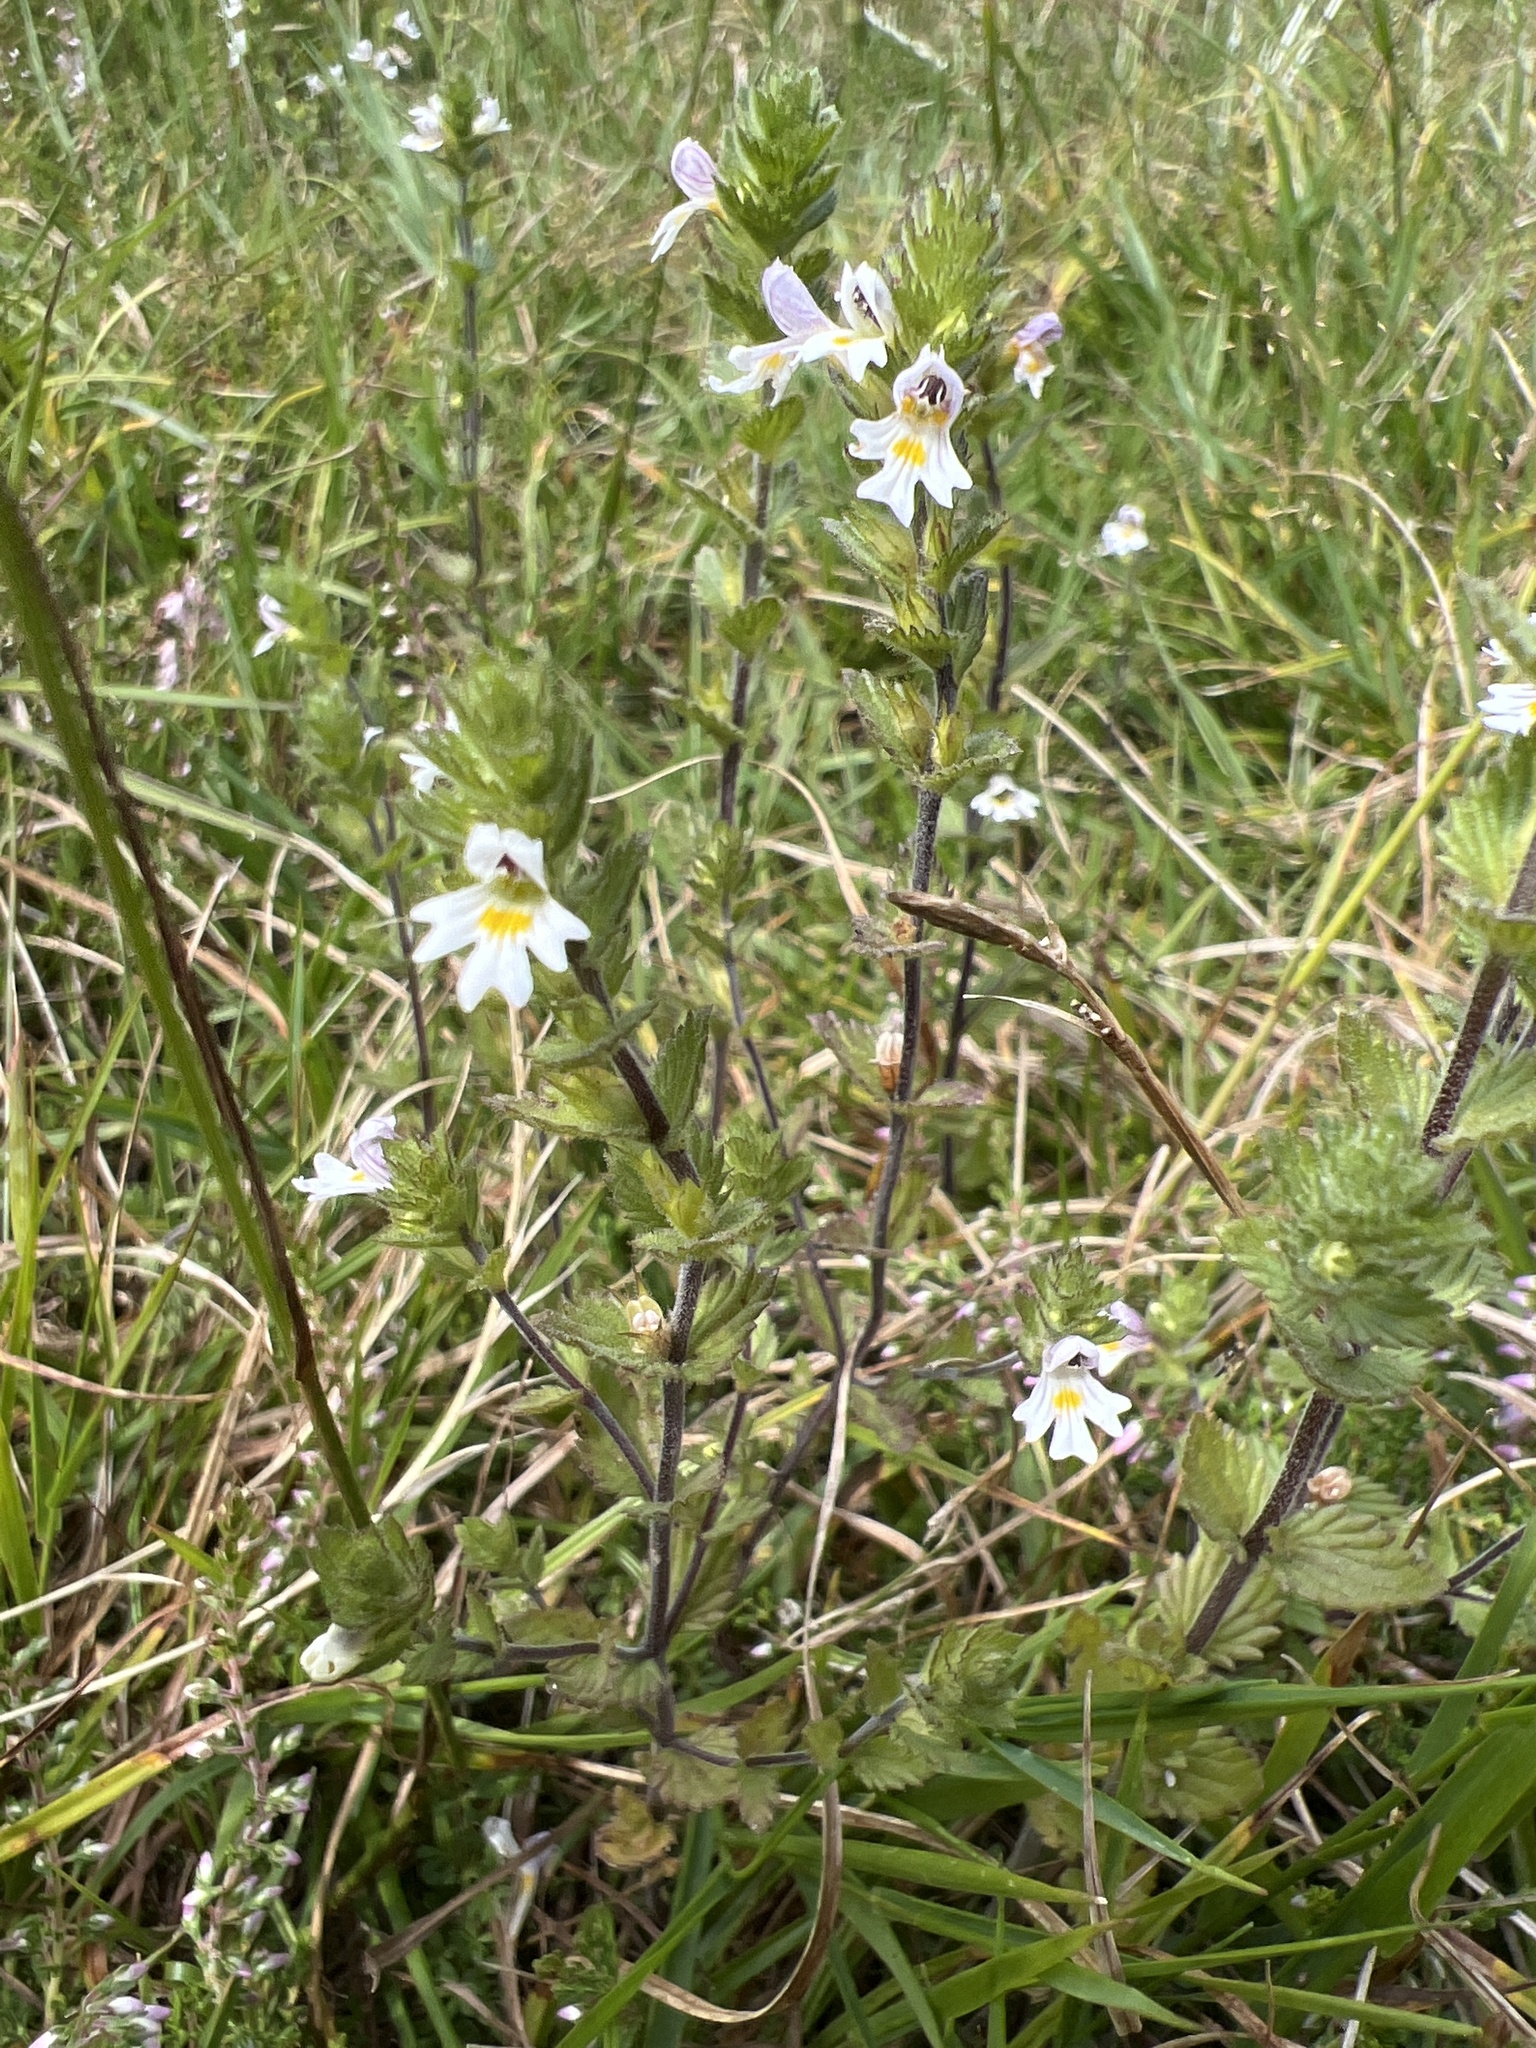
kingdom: Plantae
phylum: Tracheophyta
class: Magnoliopsida
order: Lamiales
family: Orobanchaceae
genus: Euphrasia
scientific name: Euphrasia officinalis
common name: Eyebright
